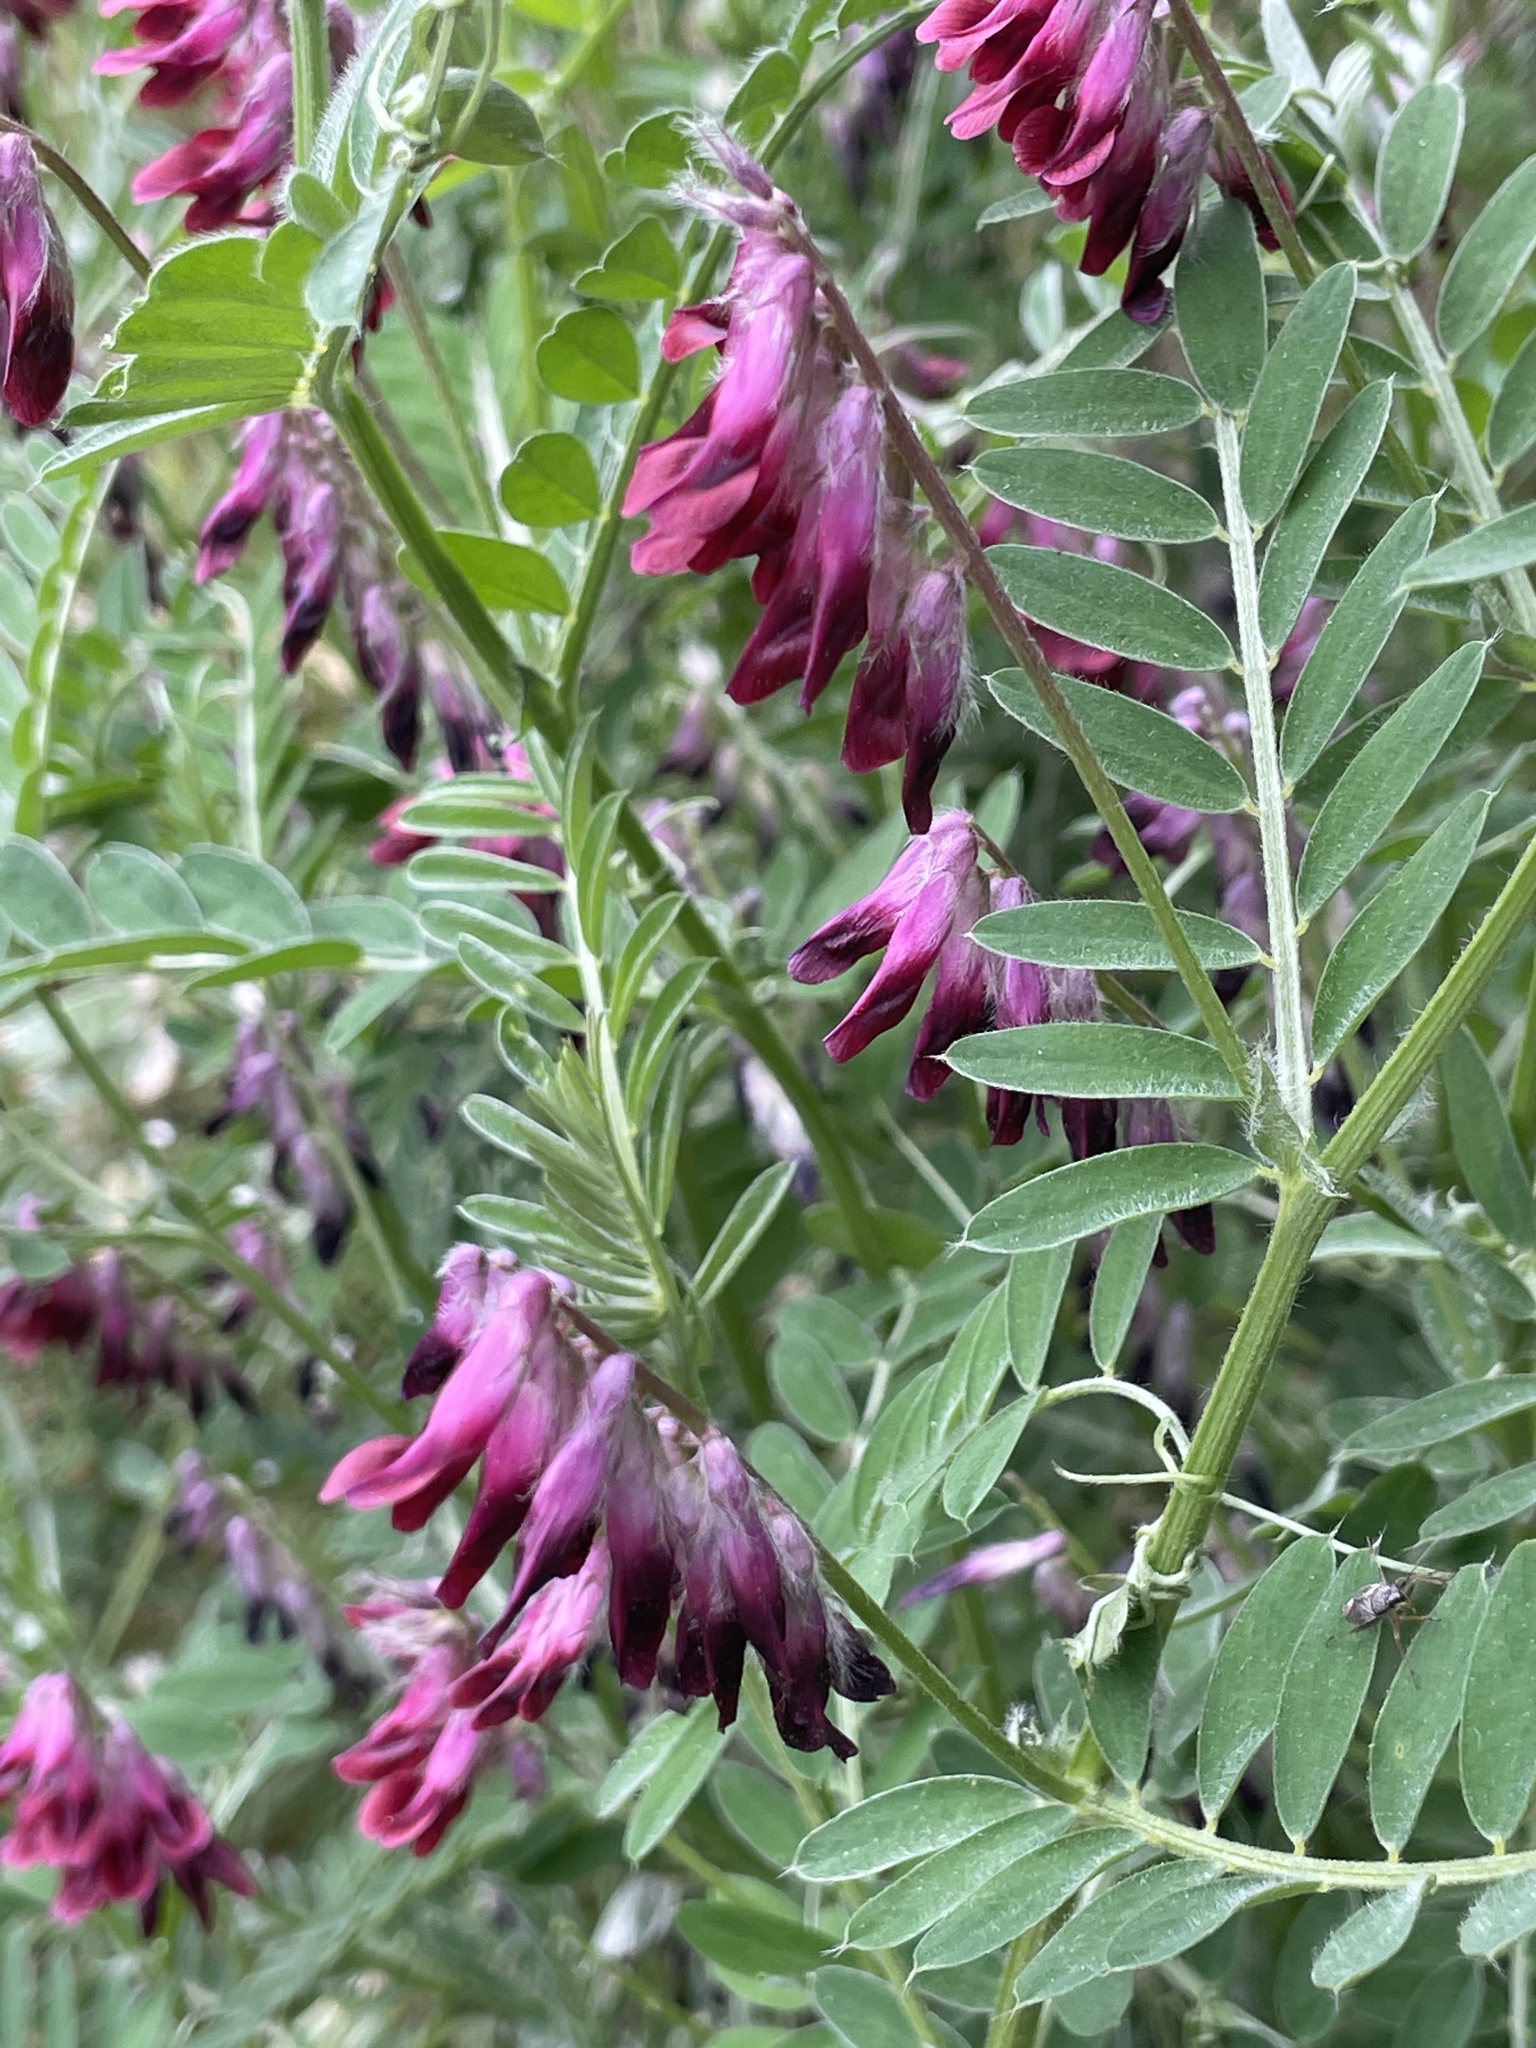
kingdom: Plantae
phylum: Tracheophyta
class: Magnoliopsida
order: Fabales
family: Fabaceae
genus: Vicia
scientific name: Vicia benghalensis
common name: Purple vetch
